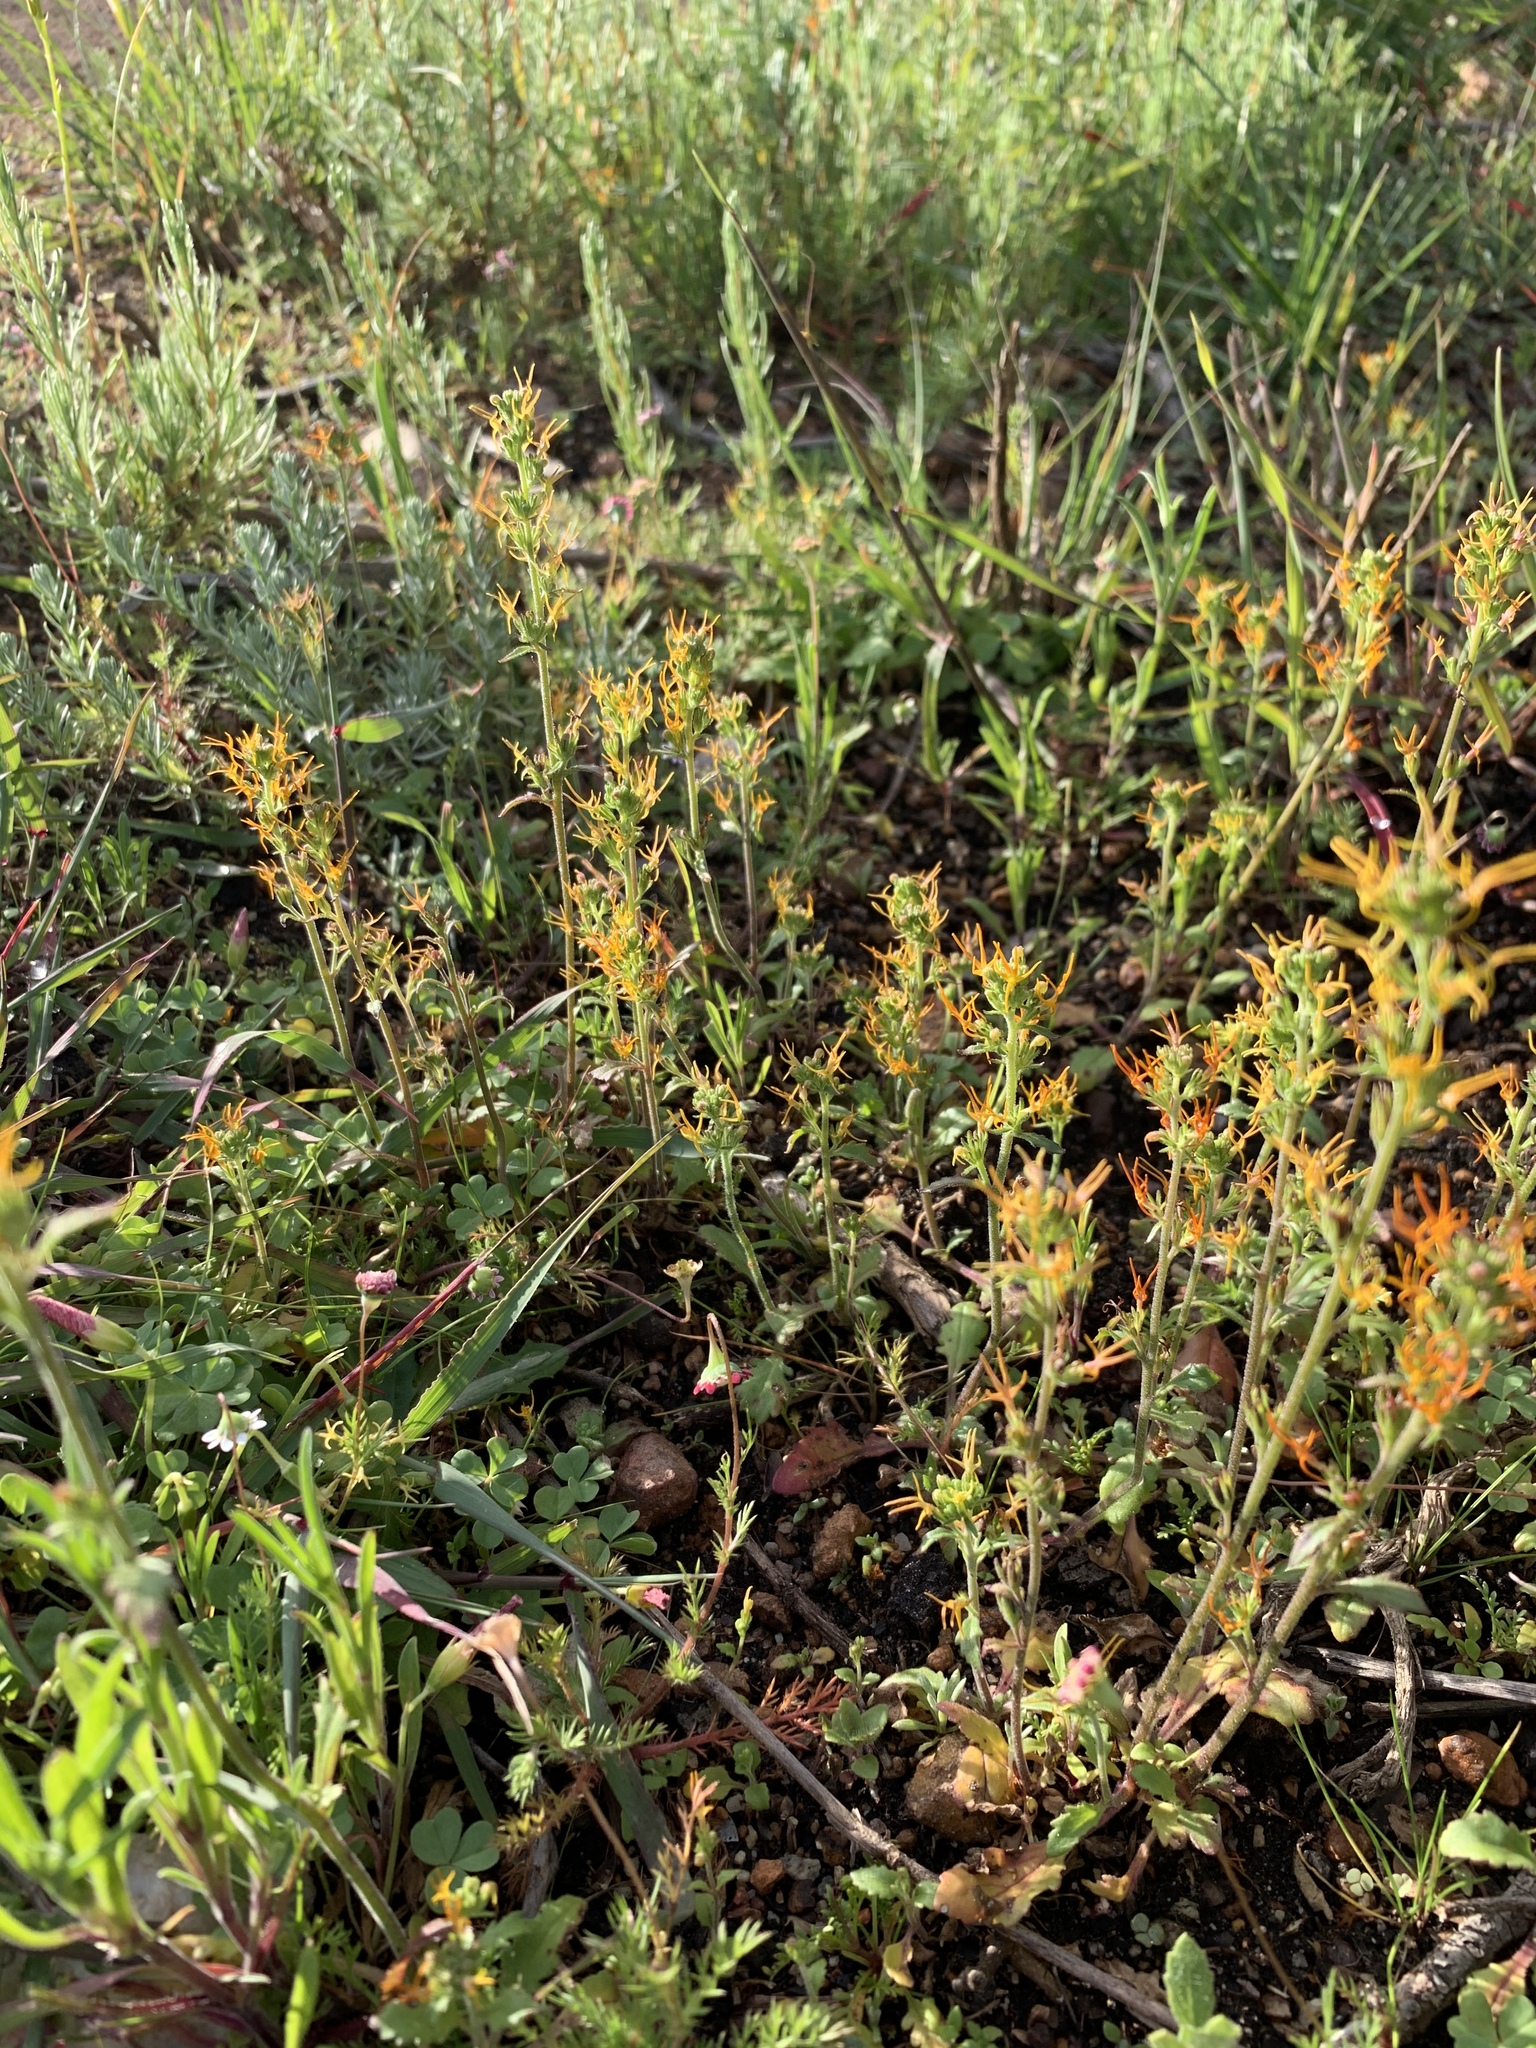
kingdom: Plantae
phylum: Tracheophyta
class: Magnoliopsida
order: Lamiales
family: Scrophulariaceae
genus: Manulea
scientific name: Manulea cheiranthus
